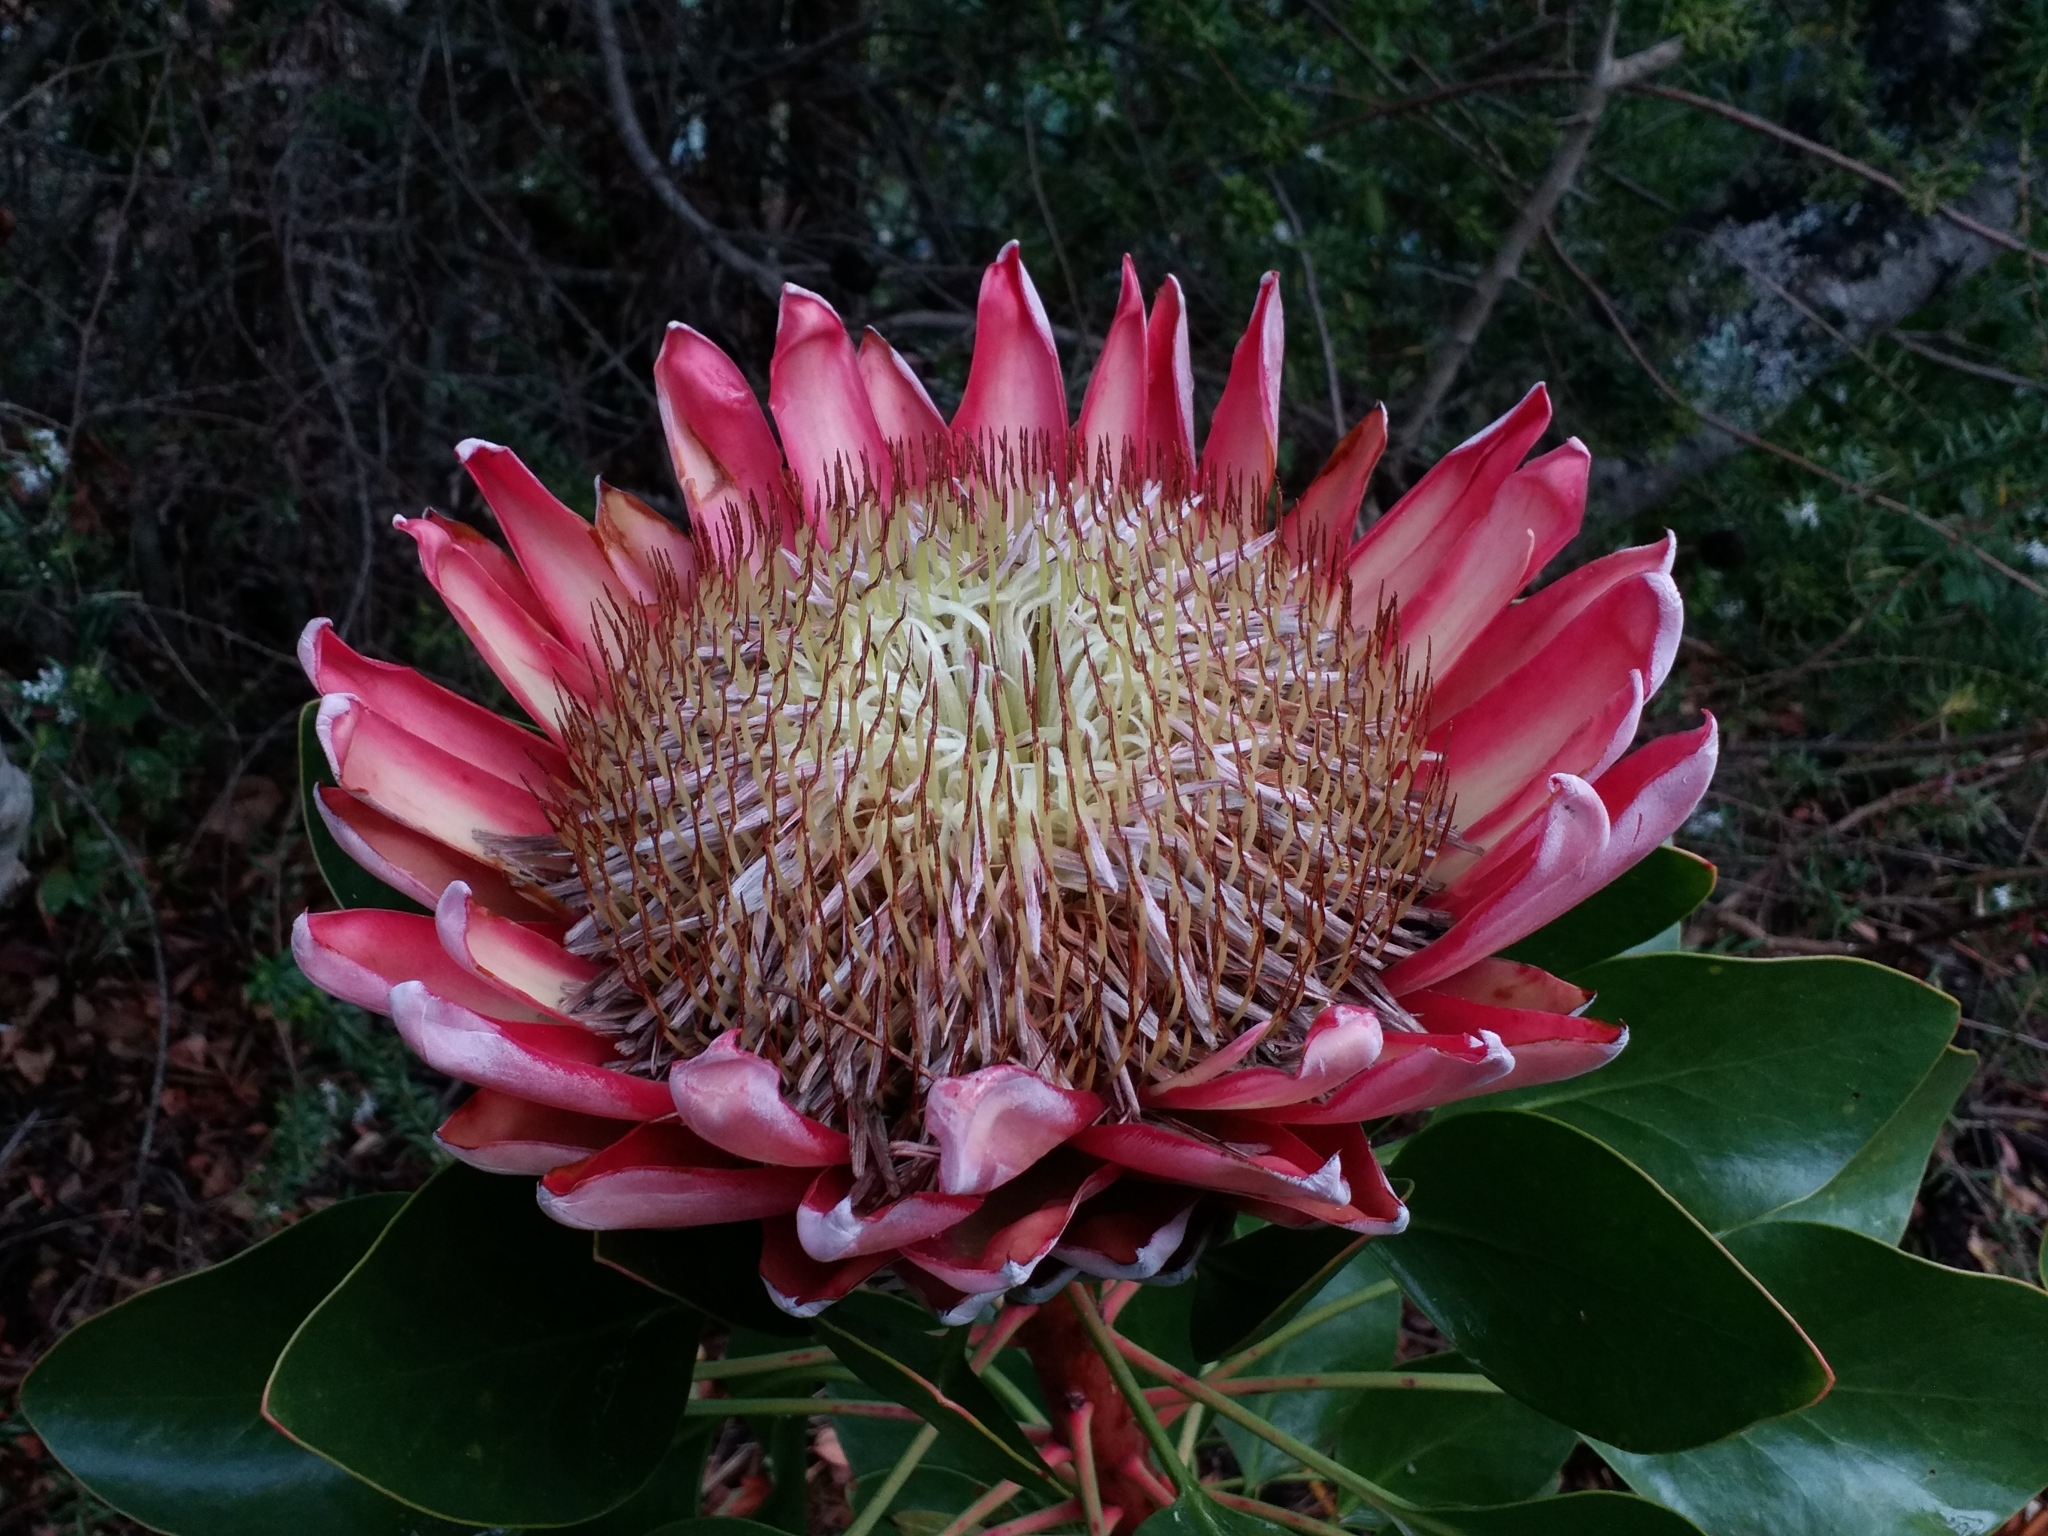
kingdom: Plantae
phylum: Tracheophyta
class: Magnoliopsida
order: Proteales
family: Proteaceae
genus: Protea
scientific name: Protea cynaroides
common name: King protea
